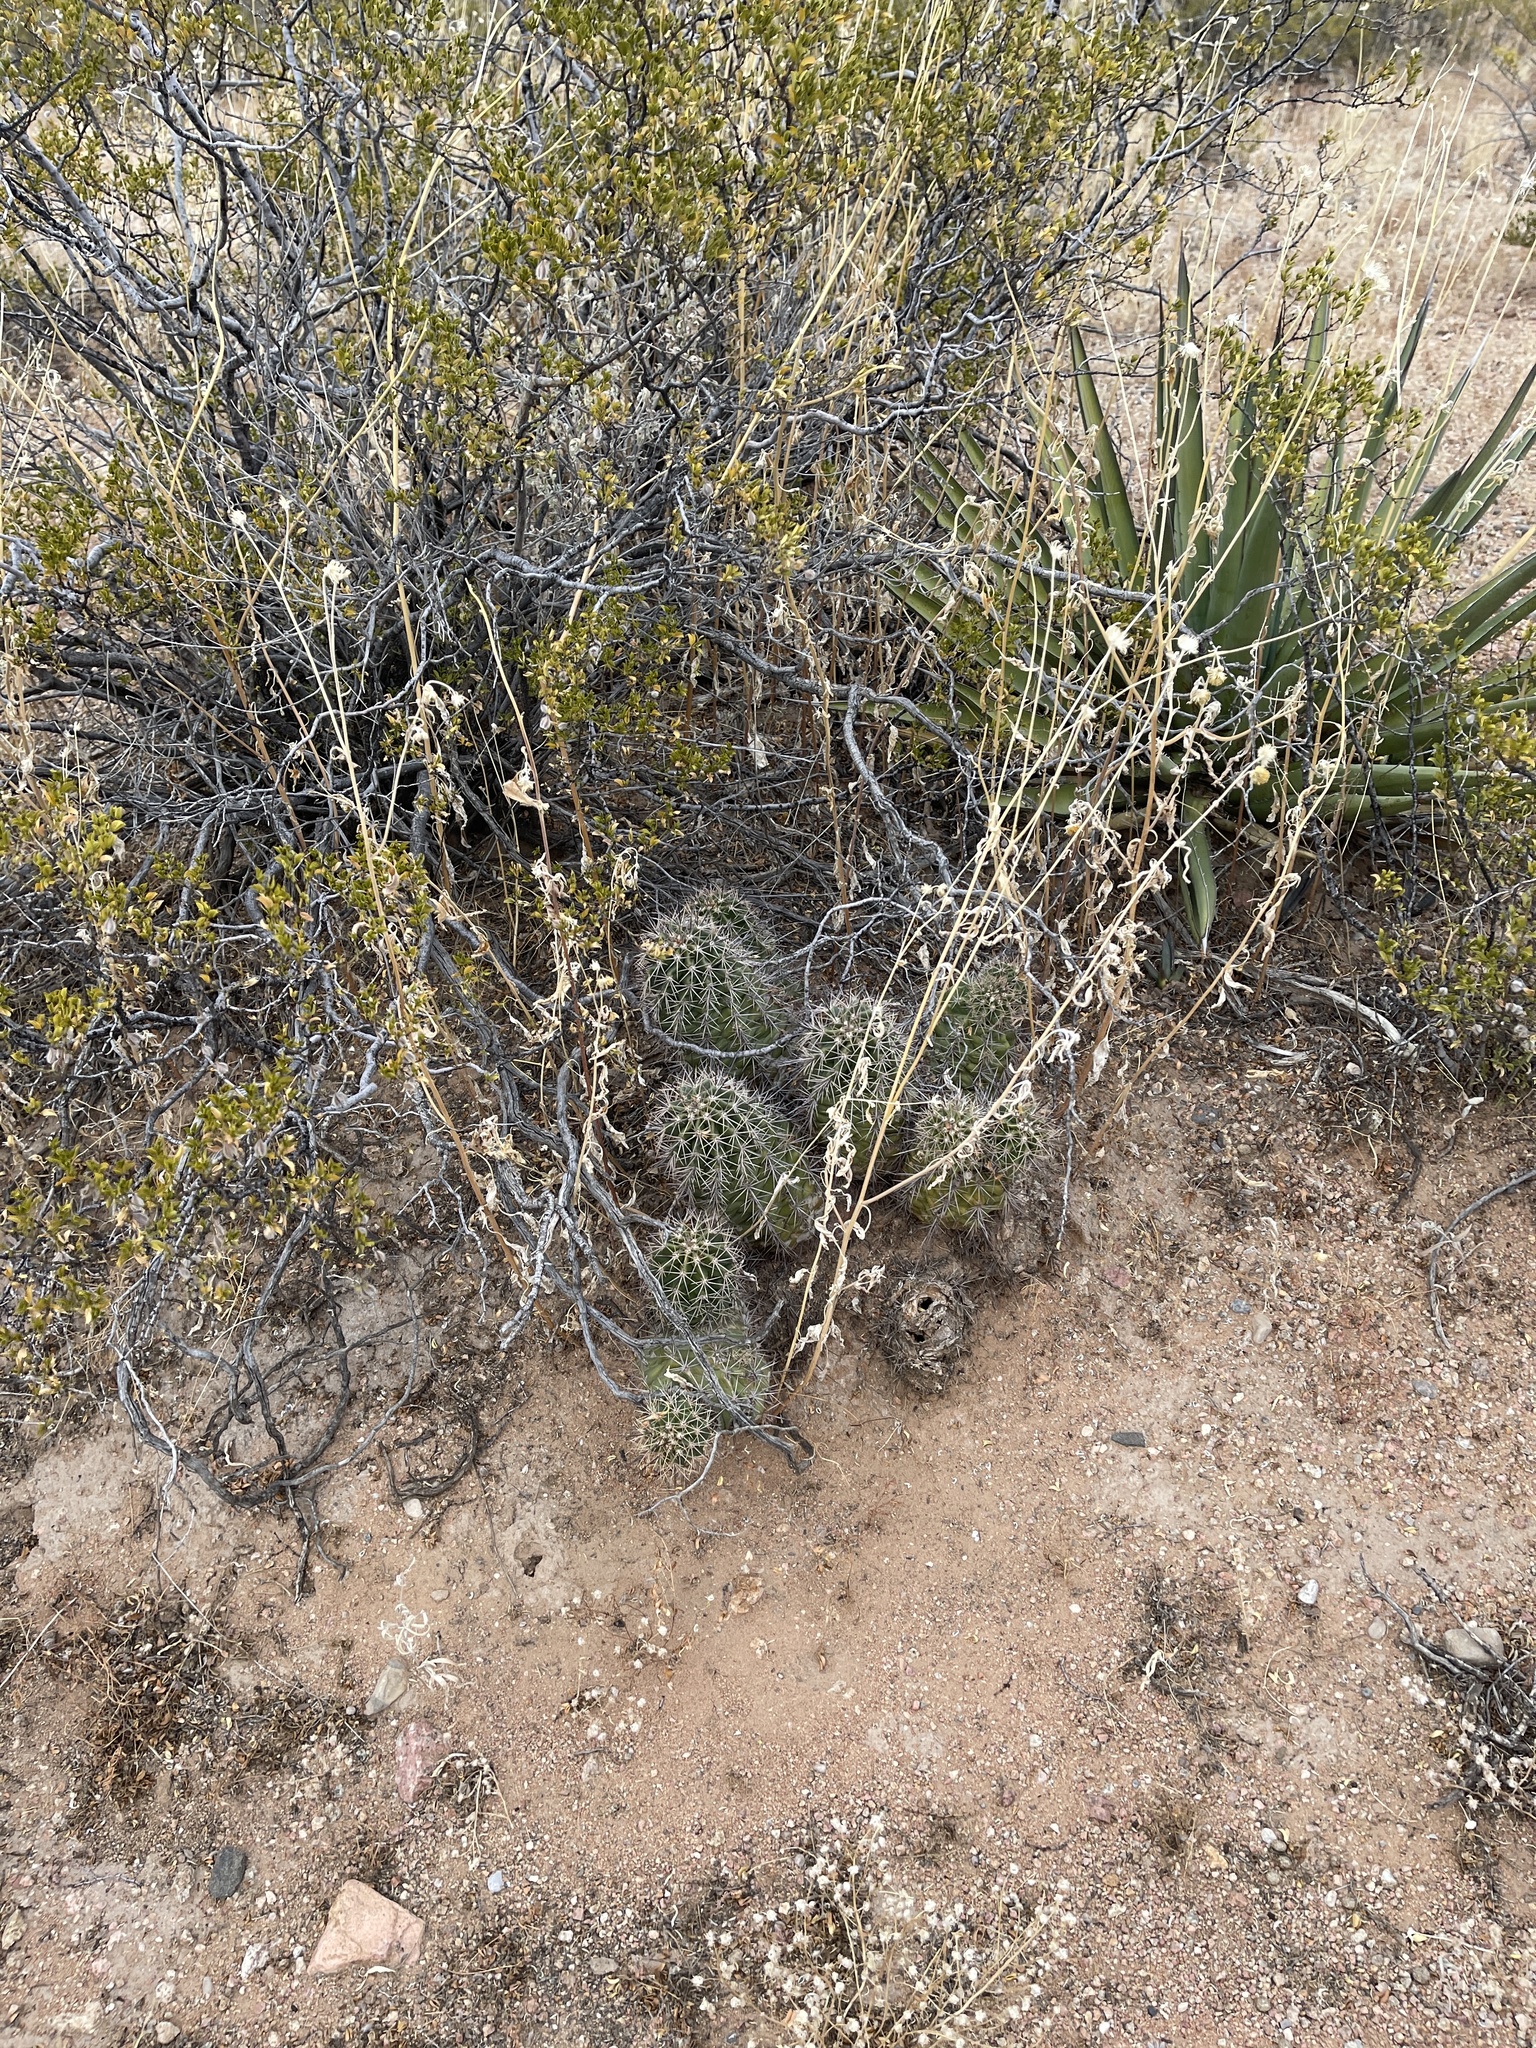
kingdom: Plantae
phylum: Tracheophyta
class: Magnoliopsida
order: Caryophyllales
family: Cactaceae
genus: Echinocereus
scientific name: Echinocereus coccineus
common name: Scarlet hedgehog cactus
